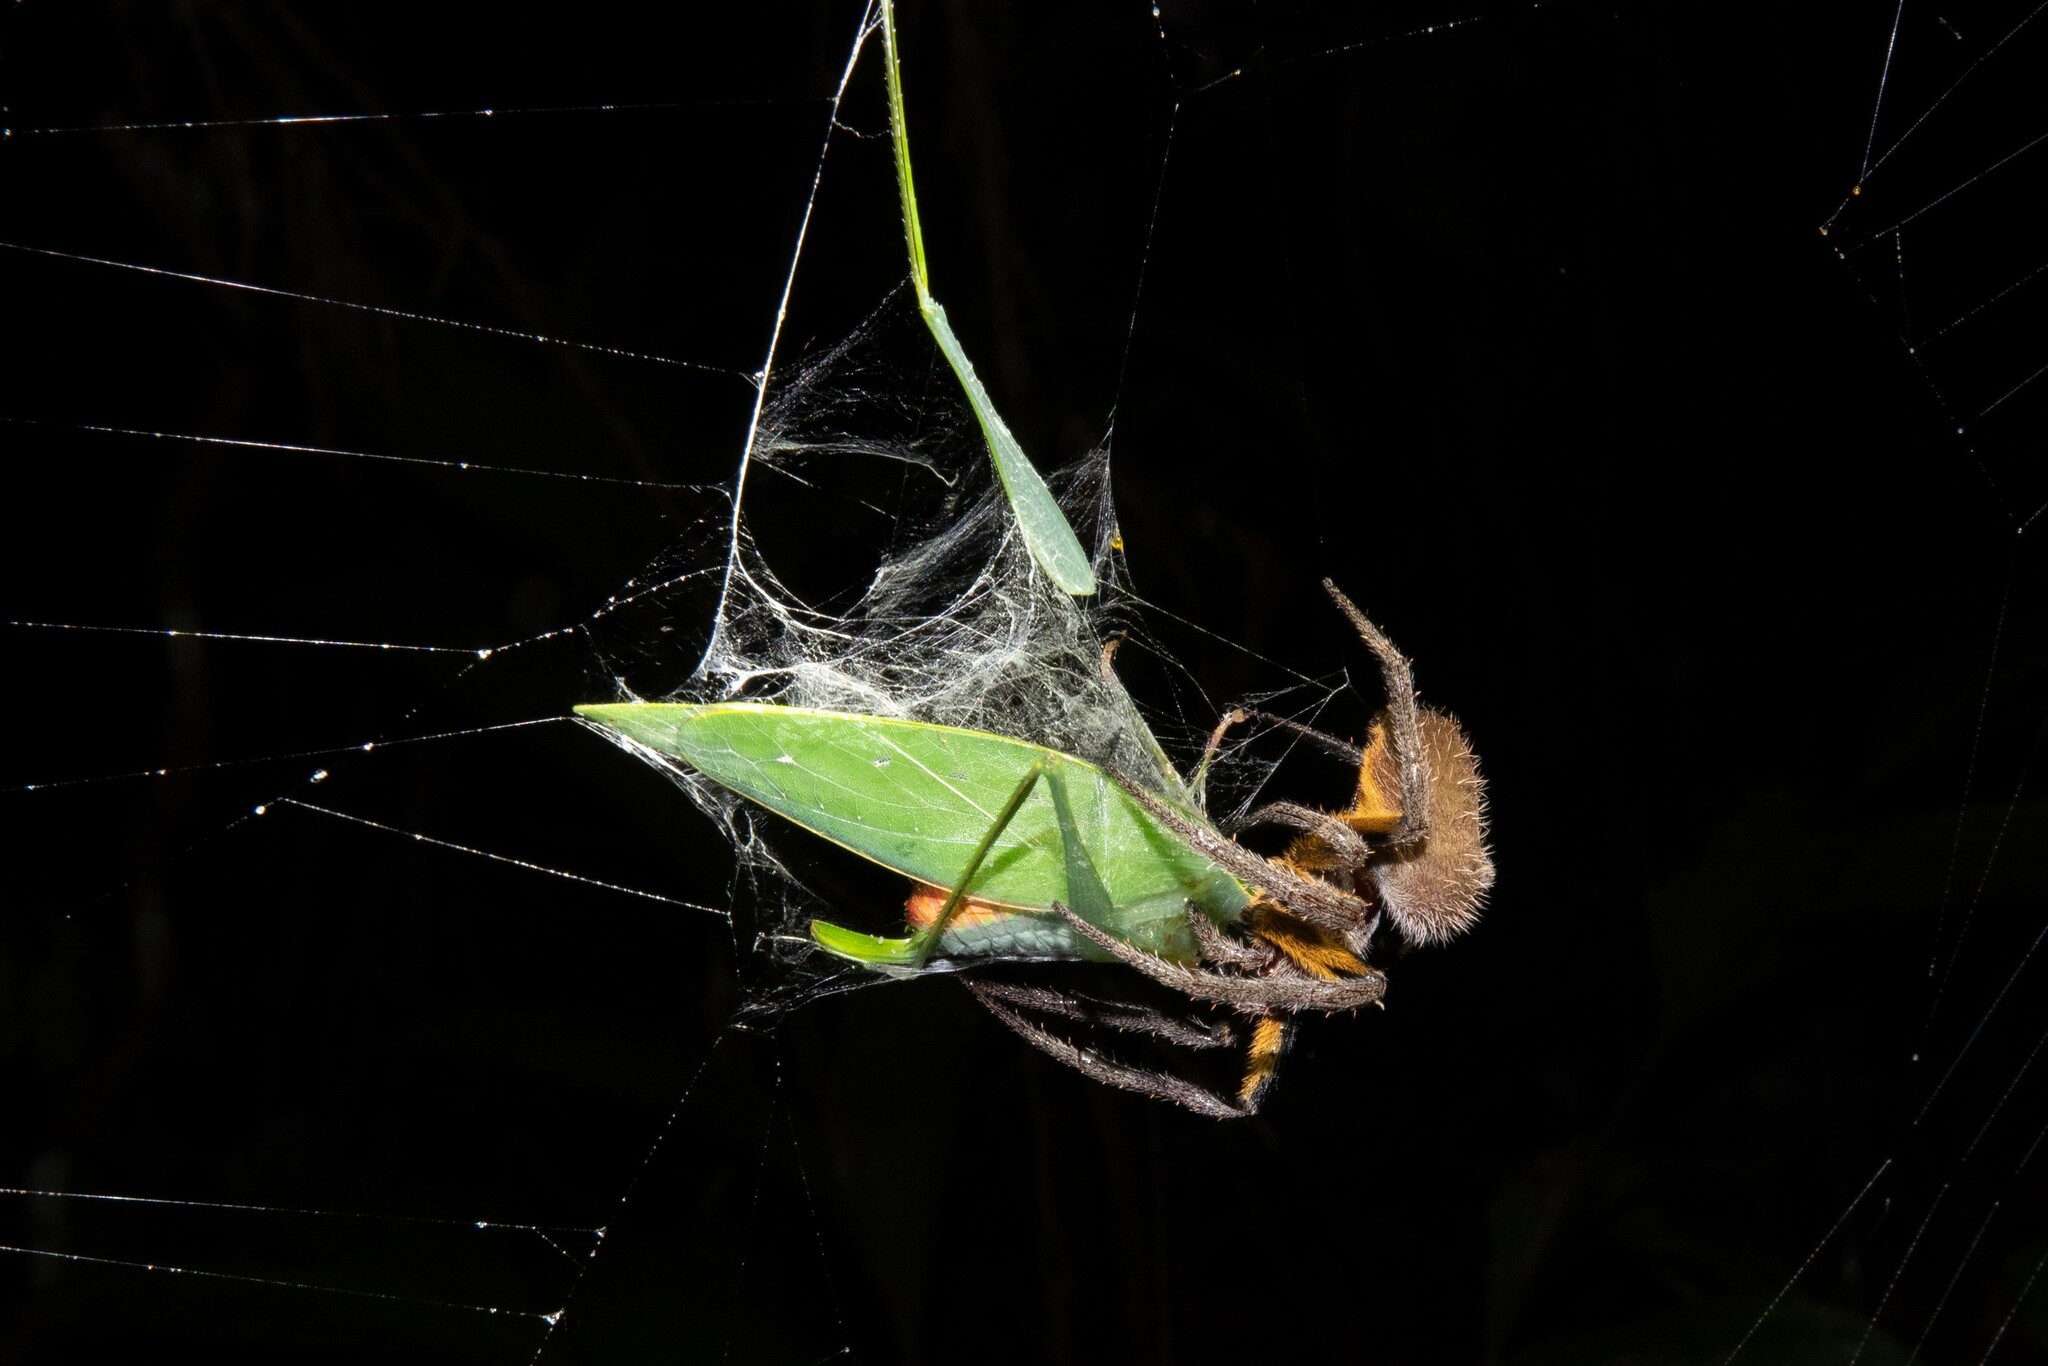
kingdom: Animalia
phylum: Arthropoda
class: Arachnida
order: Araneae
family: Araneidae
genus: Eriophora
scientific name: Eriophora fuliginea
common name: Orb weavers
